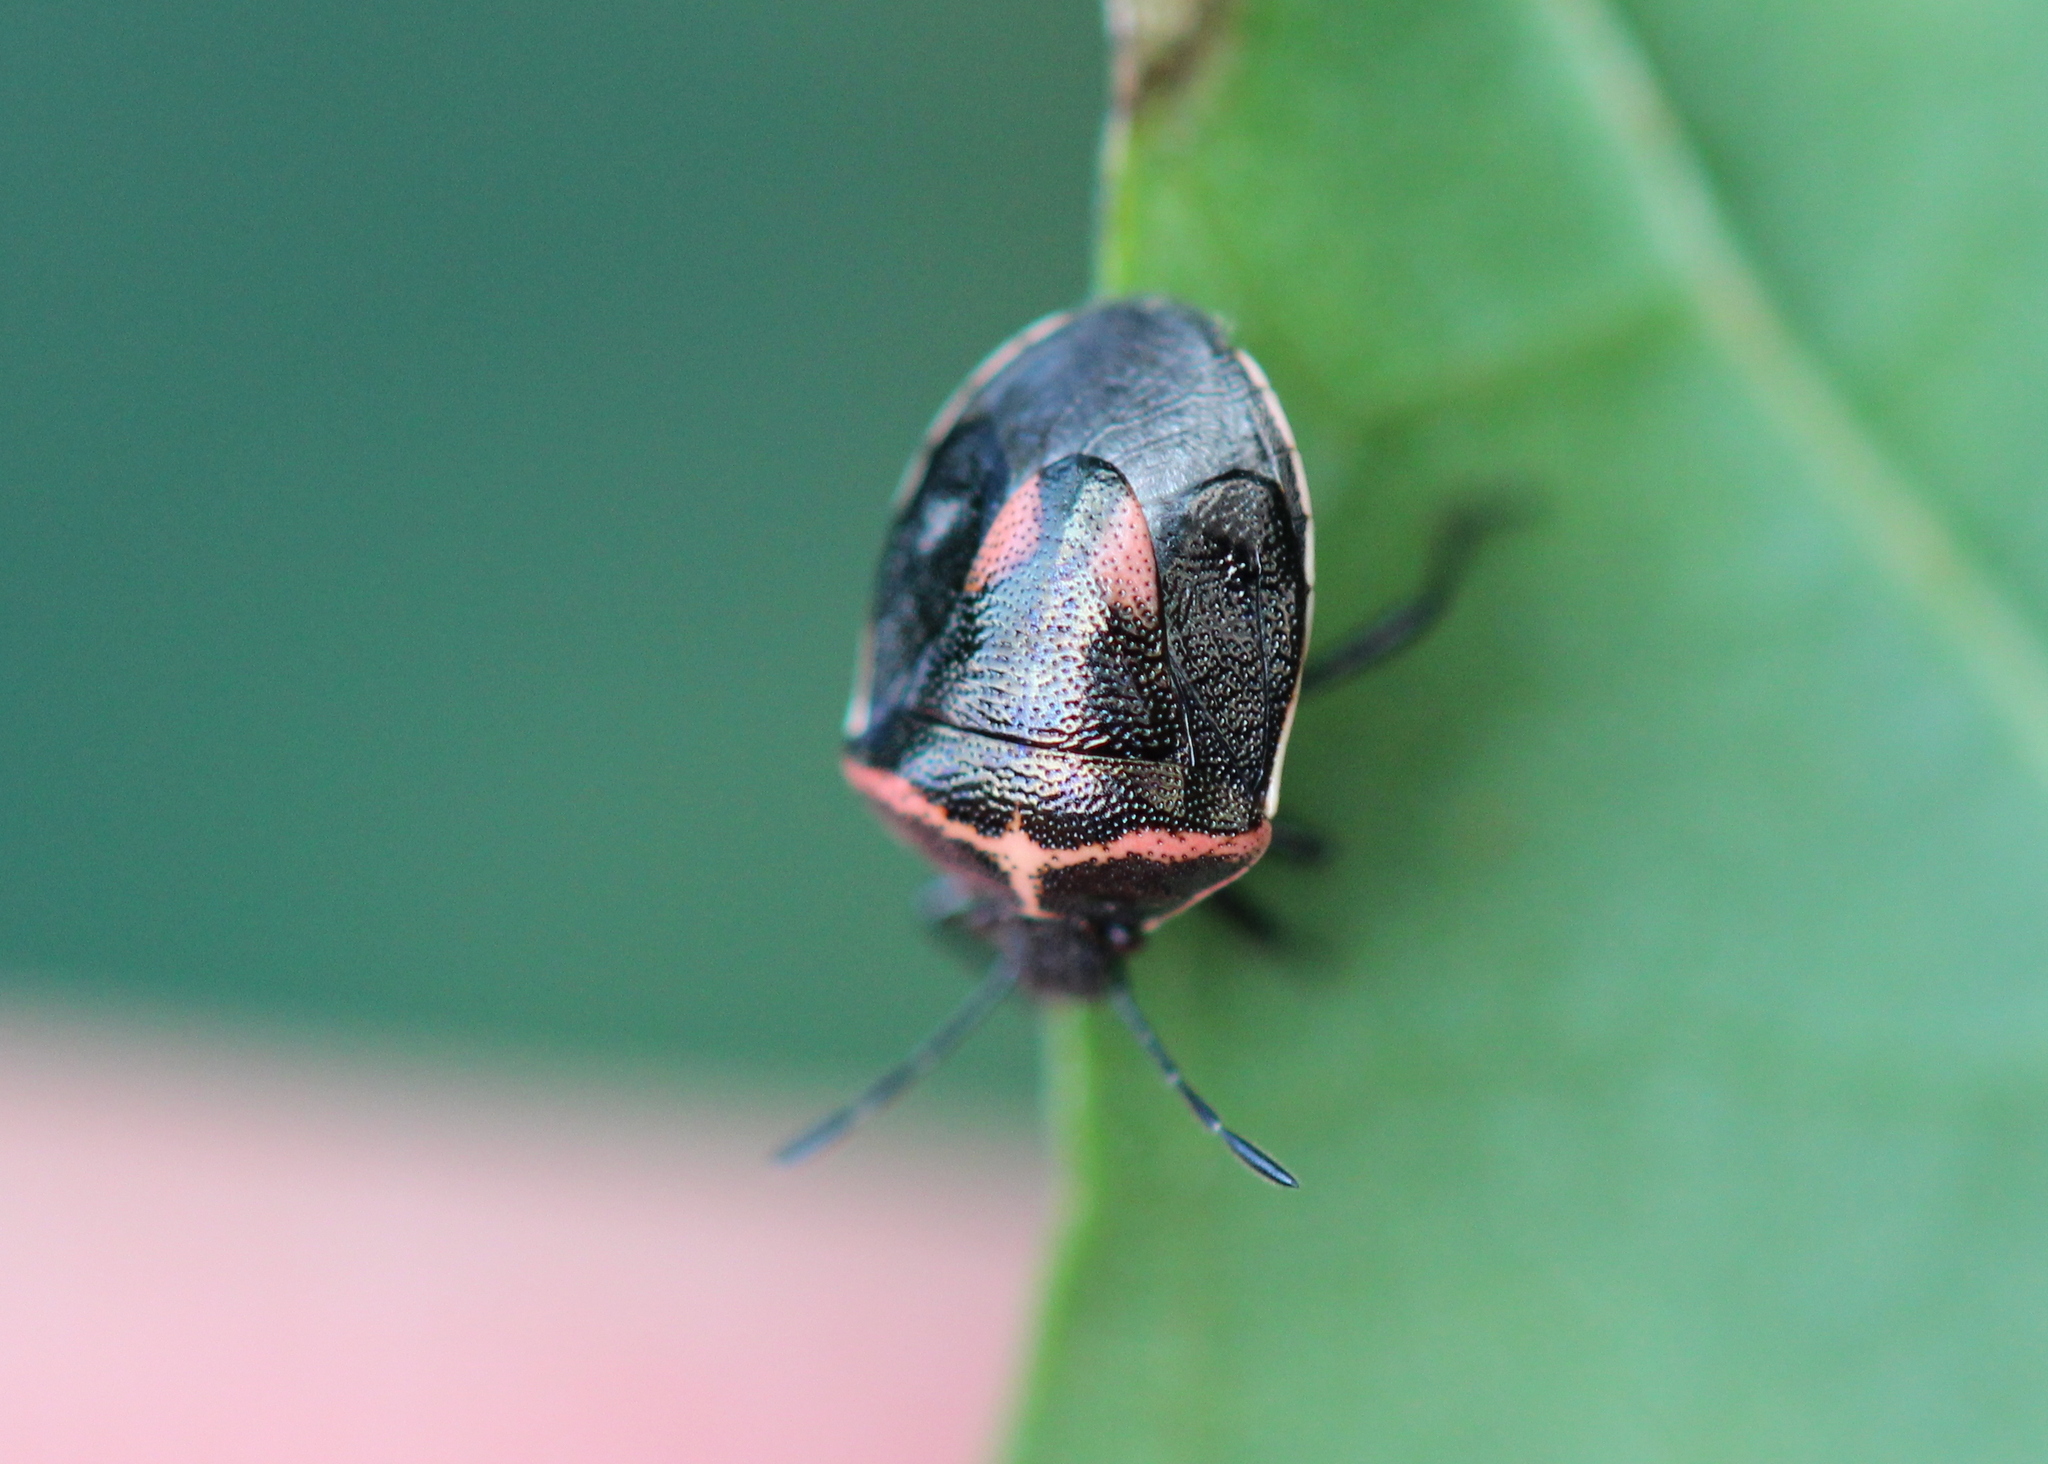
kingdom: Animalia
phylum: Arthropoda
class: Insecta
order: Hemiptera
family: Pentatomidae
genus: Cosmopepla
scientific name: Cosmopepla lintneriana
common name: Twice-stabbed stink bug
